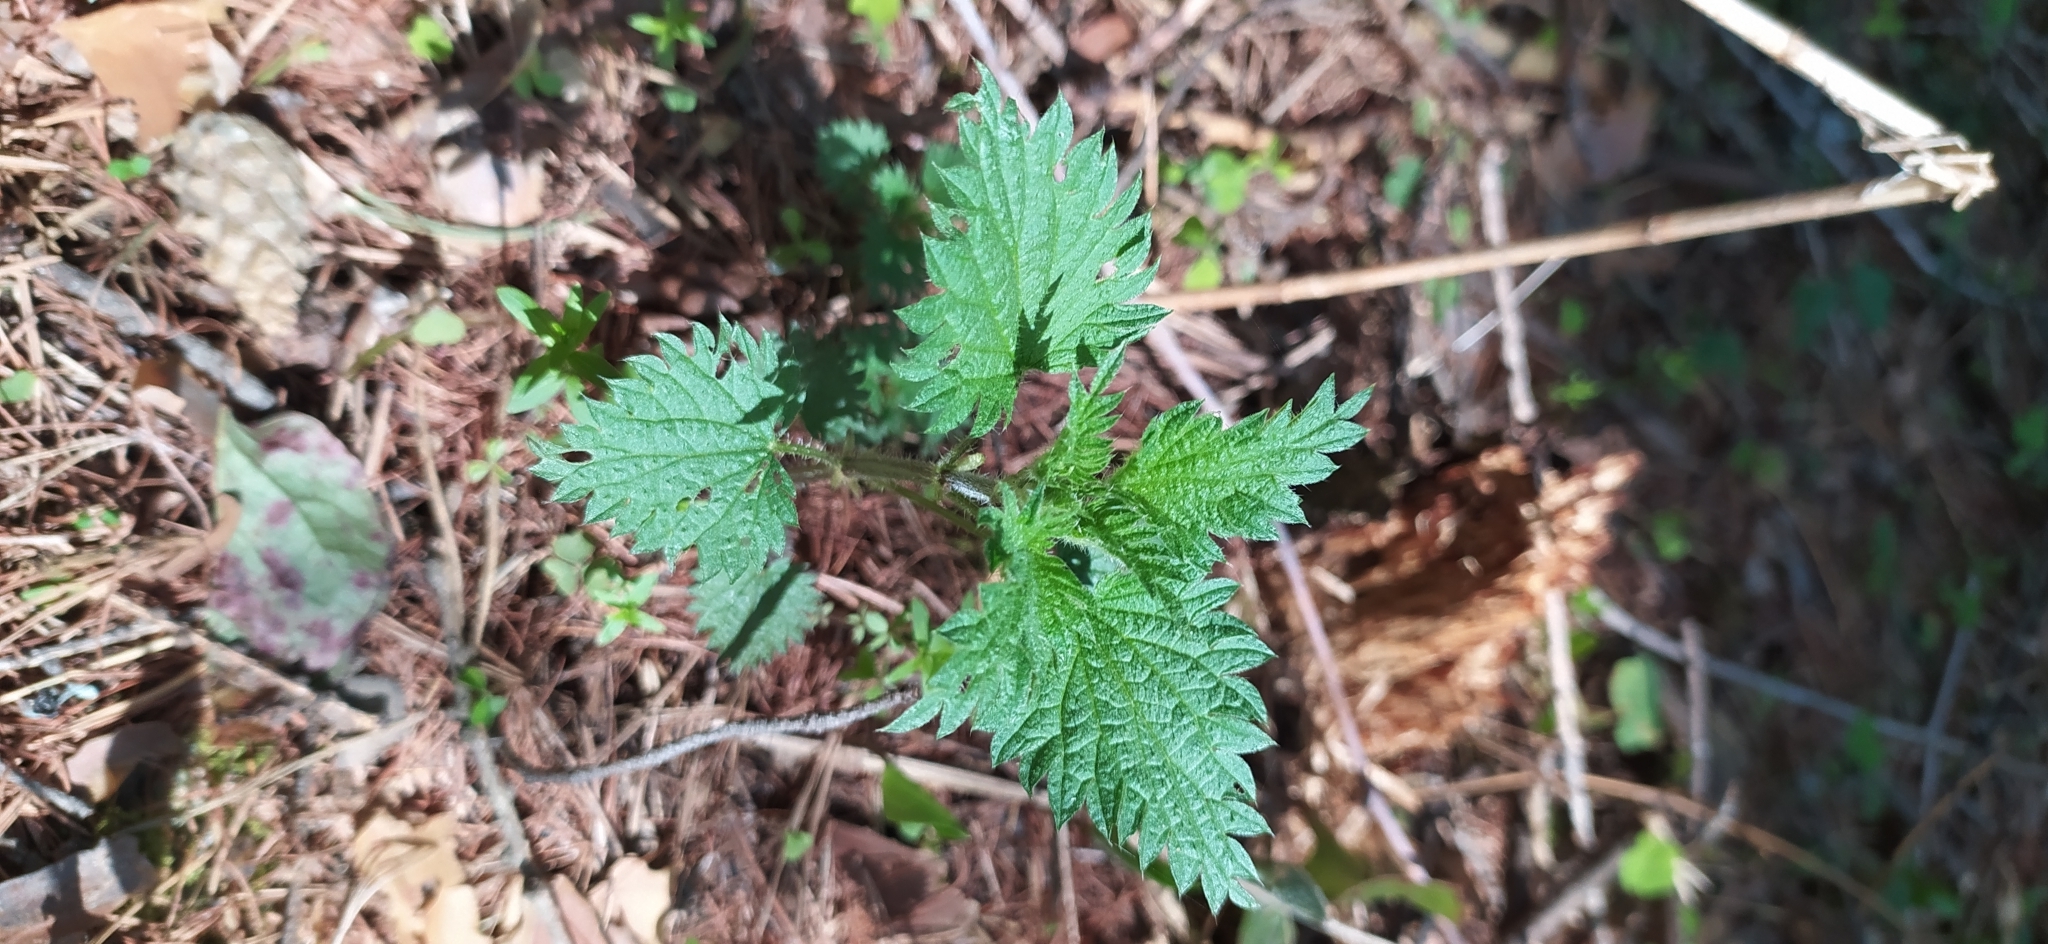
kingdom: Plantae
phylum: Tracheophyta
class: Magnoliopsida
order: Rosales
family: Urticaceae
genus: Urtica
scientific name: Urtica dioica
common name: Common nettle
